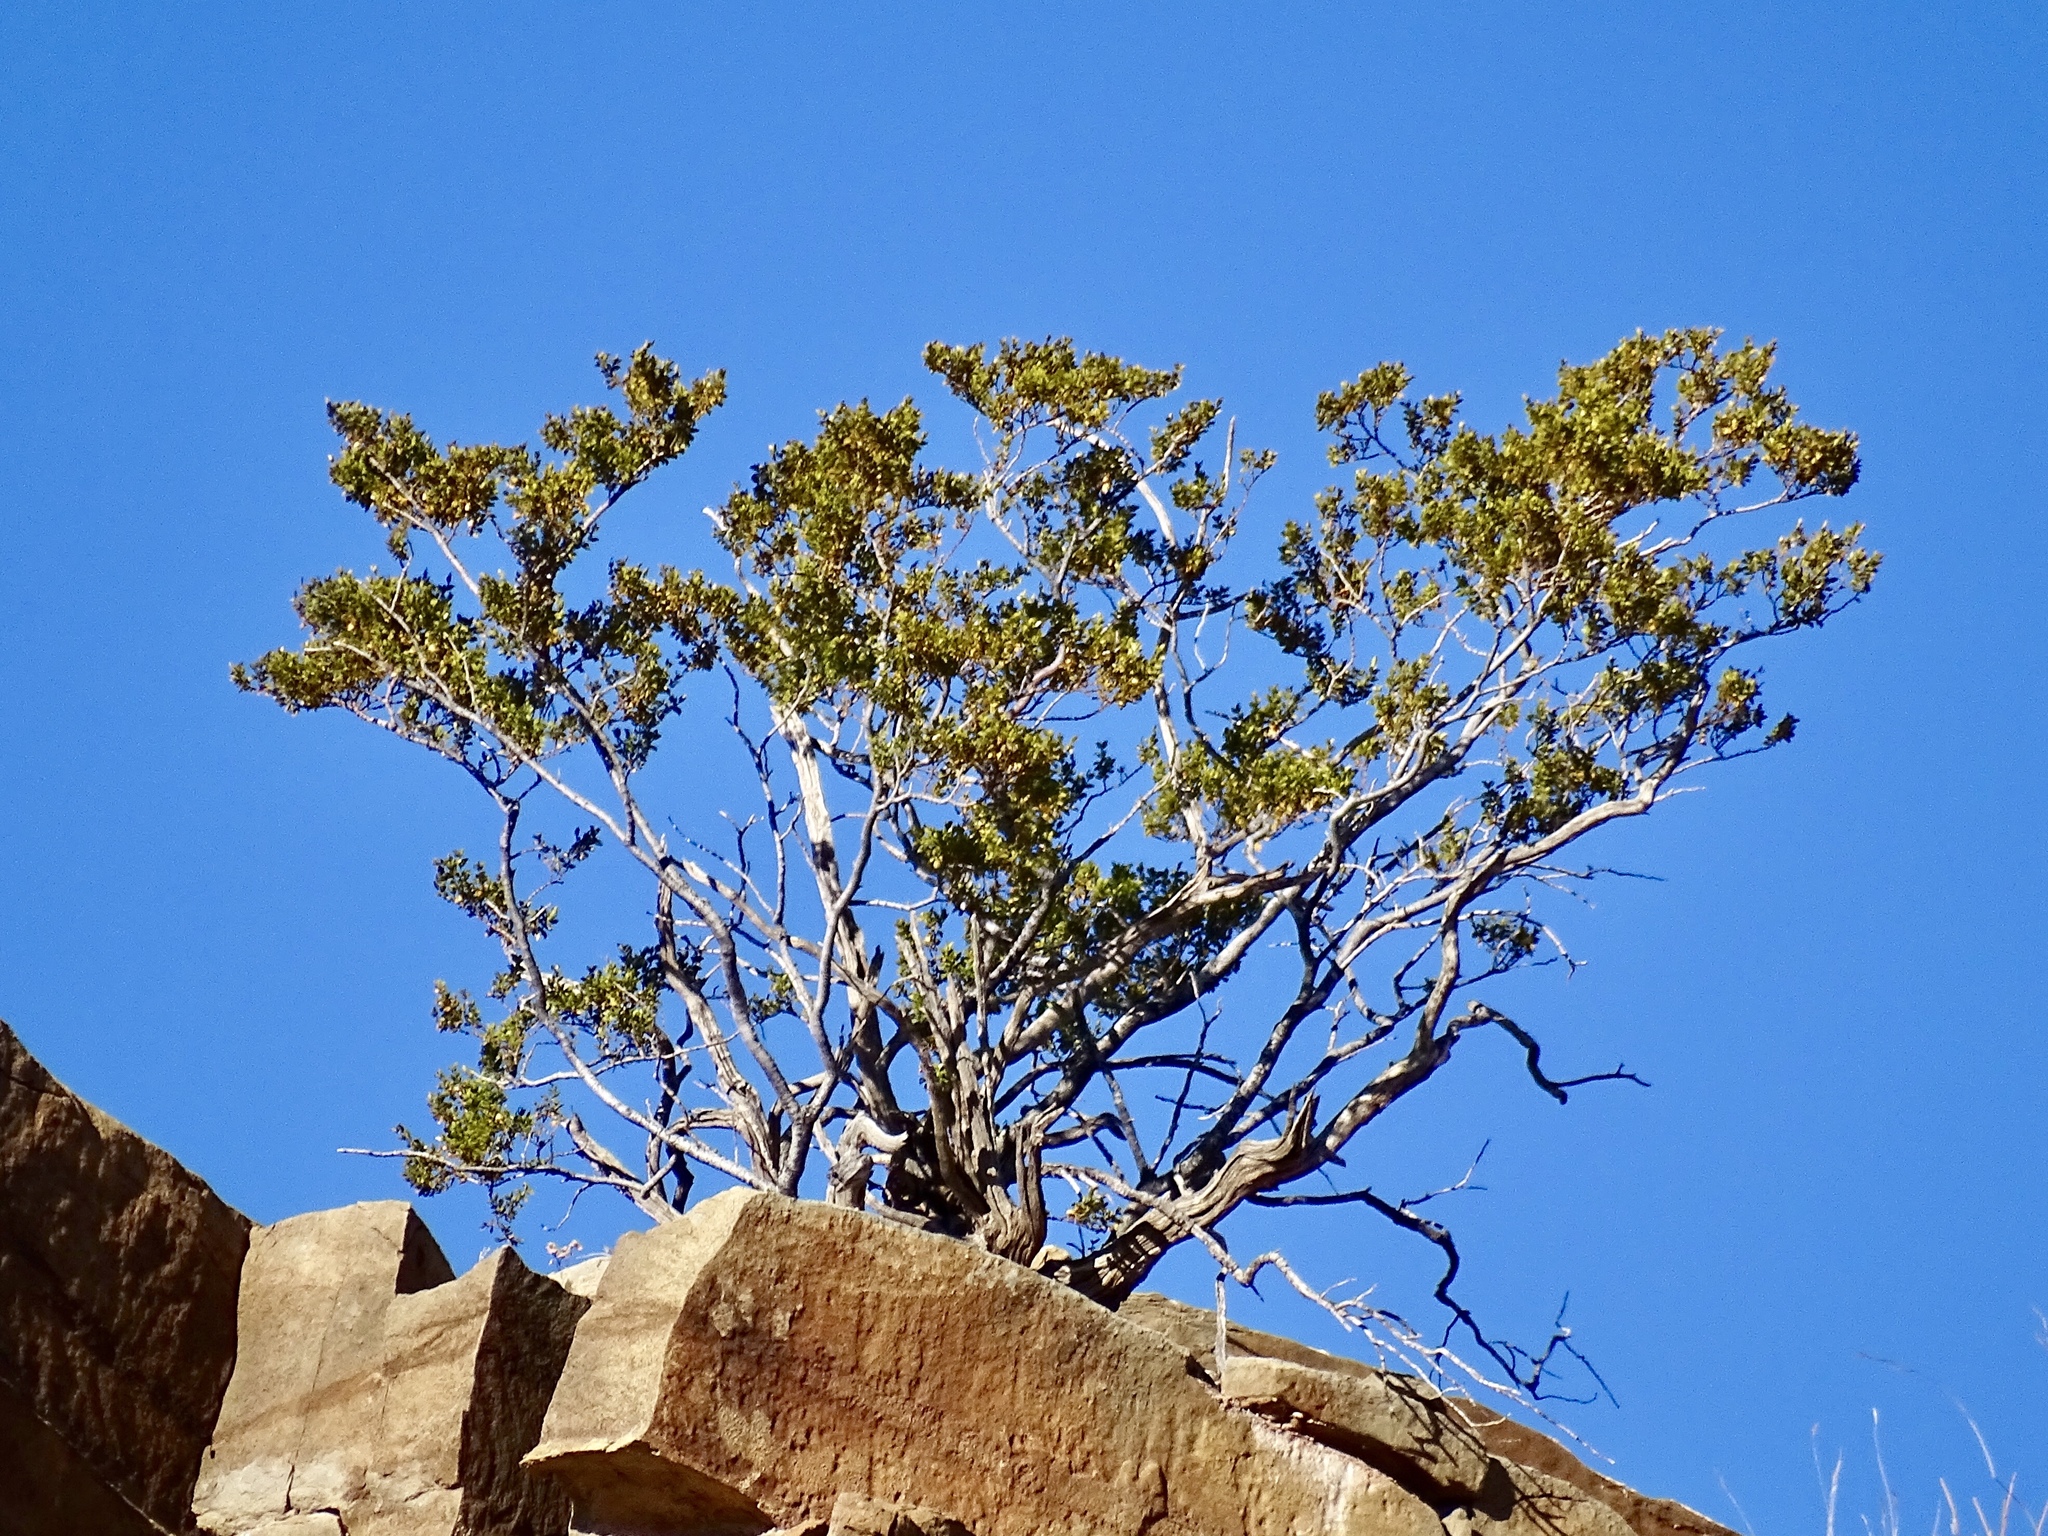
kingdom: Plantae
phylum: Tracheophyta
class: Magnoliopsida
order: Zygophyllales
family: Zygophyllaceae
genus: Larrea
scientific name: Larrea tridentata
